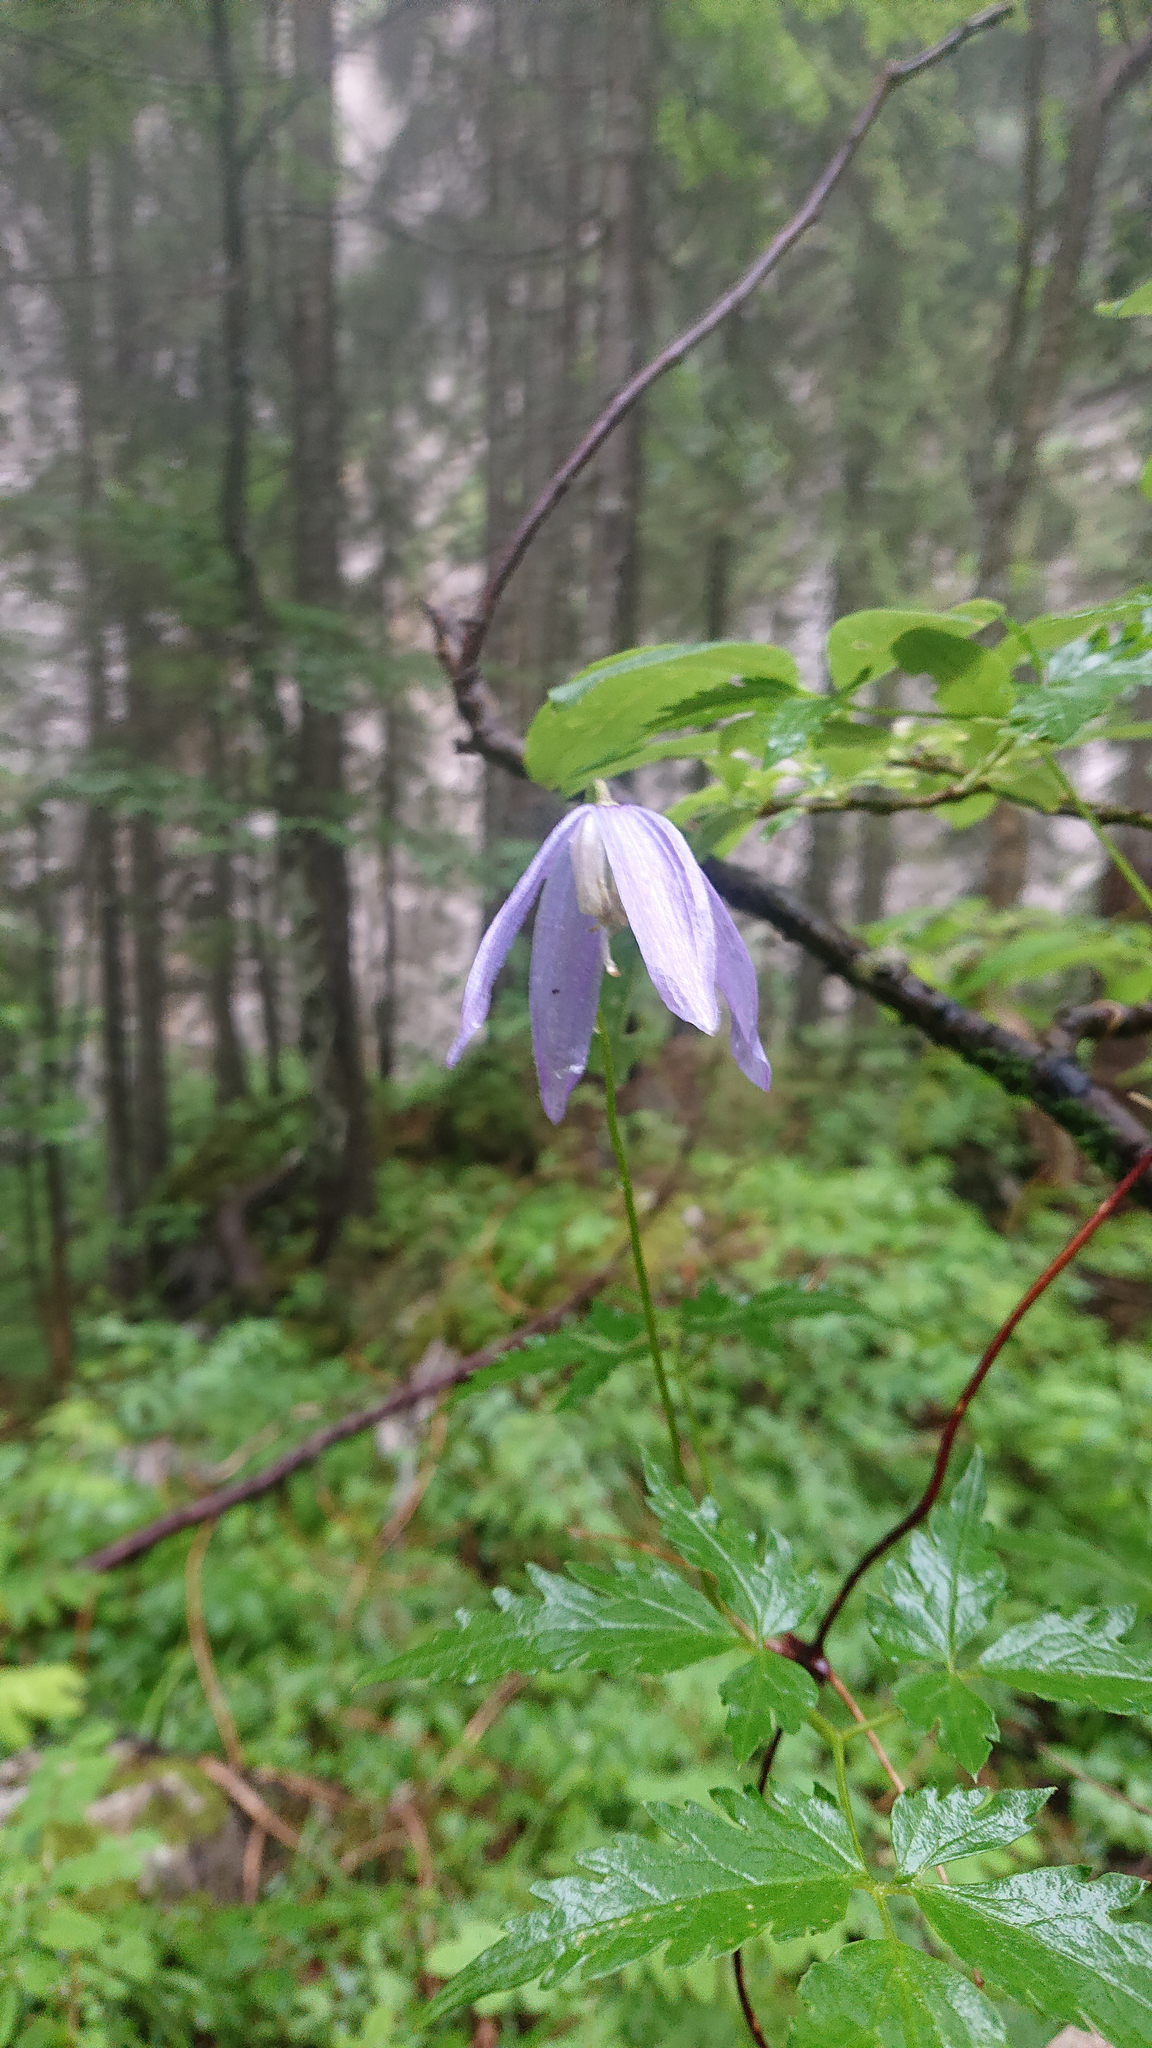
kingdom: Plantae
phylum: Tracheophyta
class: Magnoliopsida
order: Ranunculales
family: Ranunculaceae
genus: Clematis
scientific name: Clematis alpina
